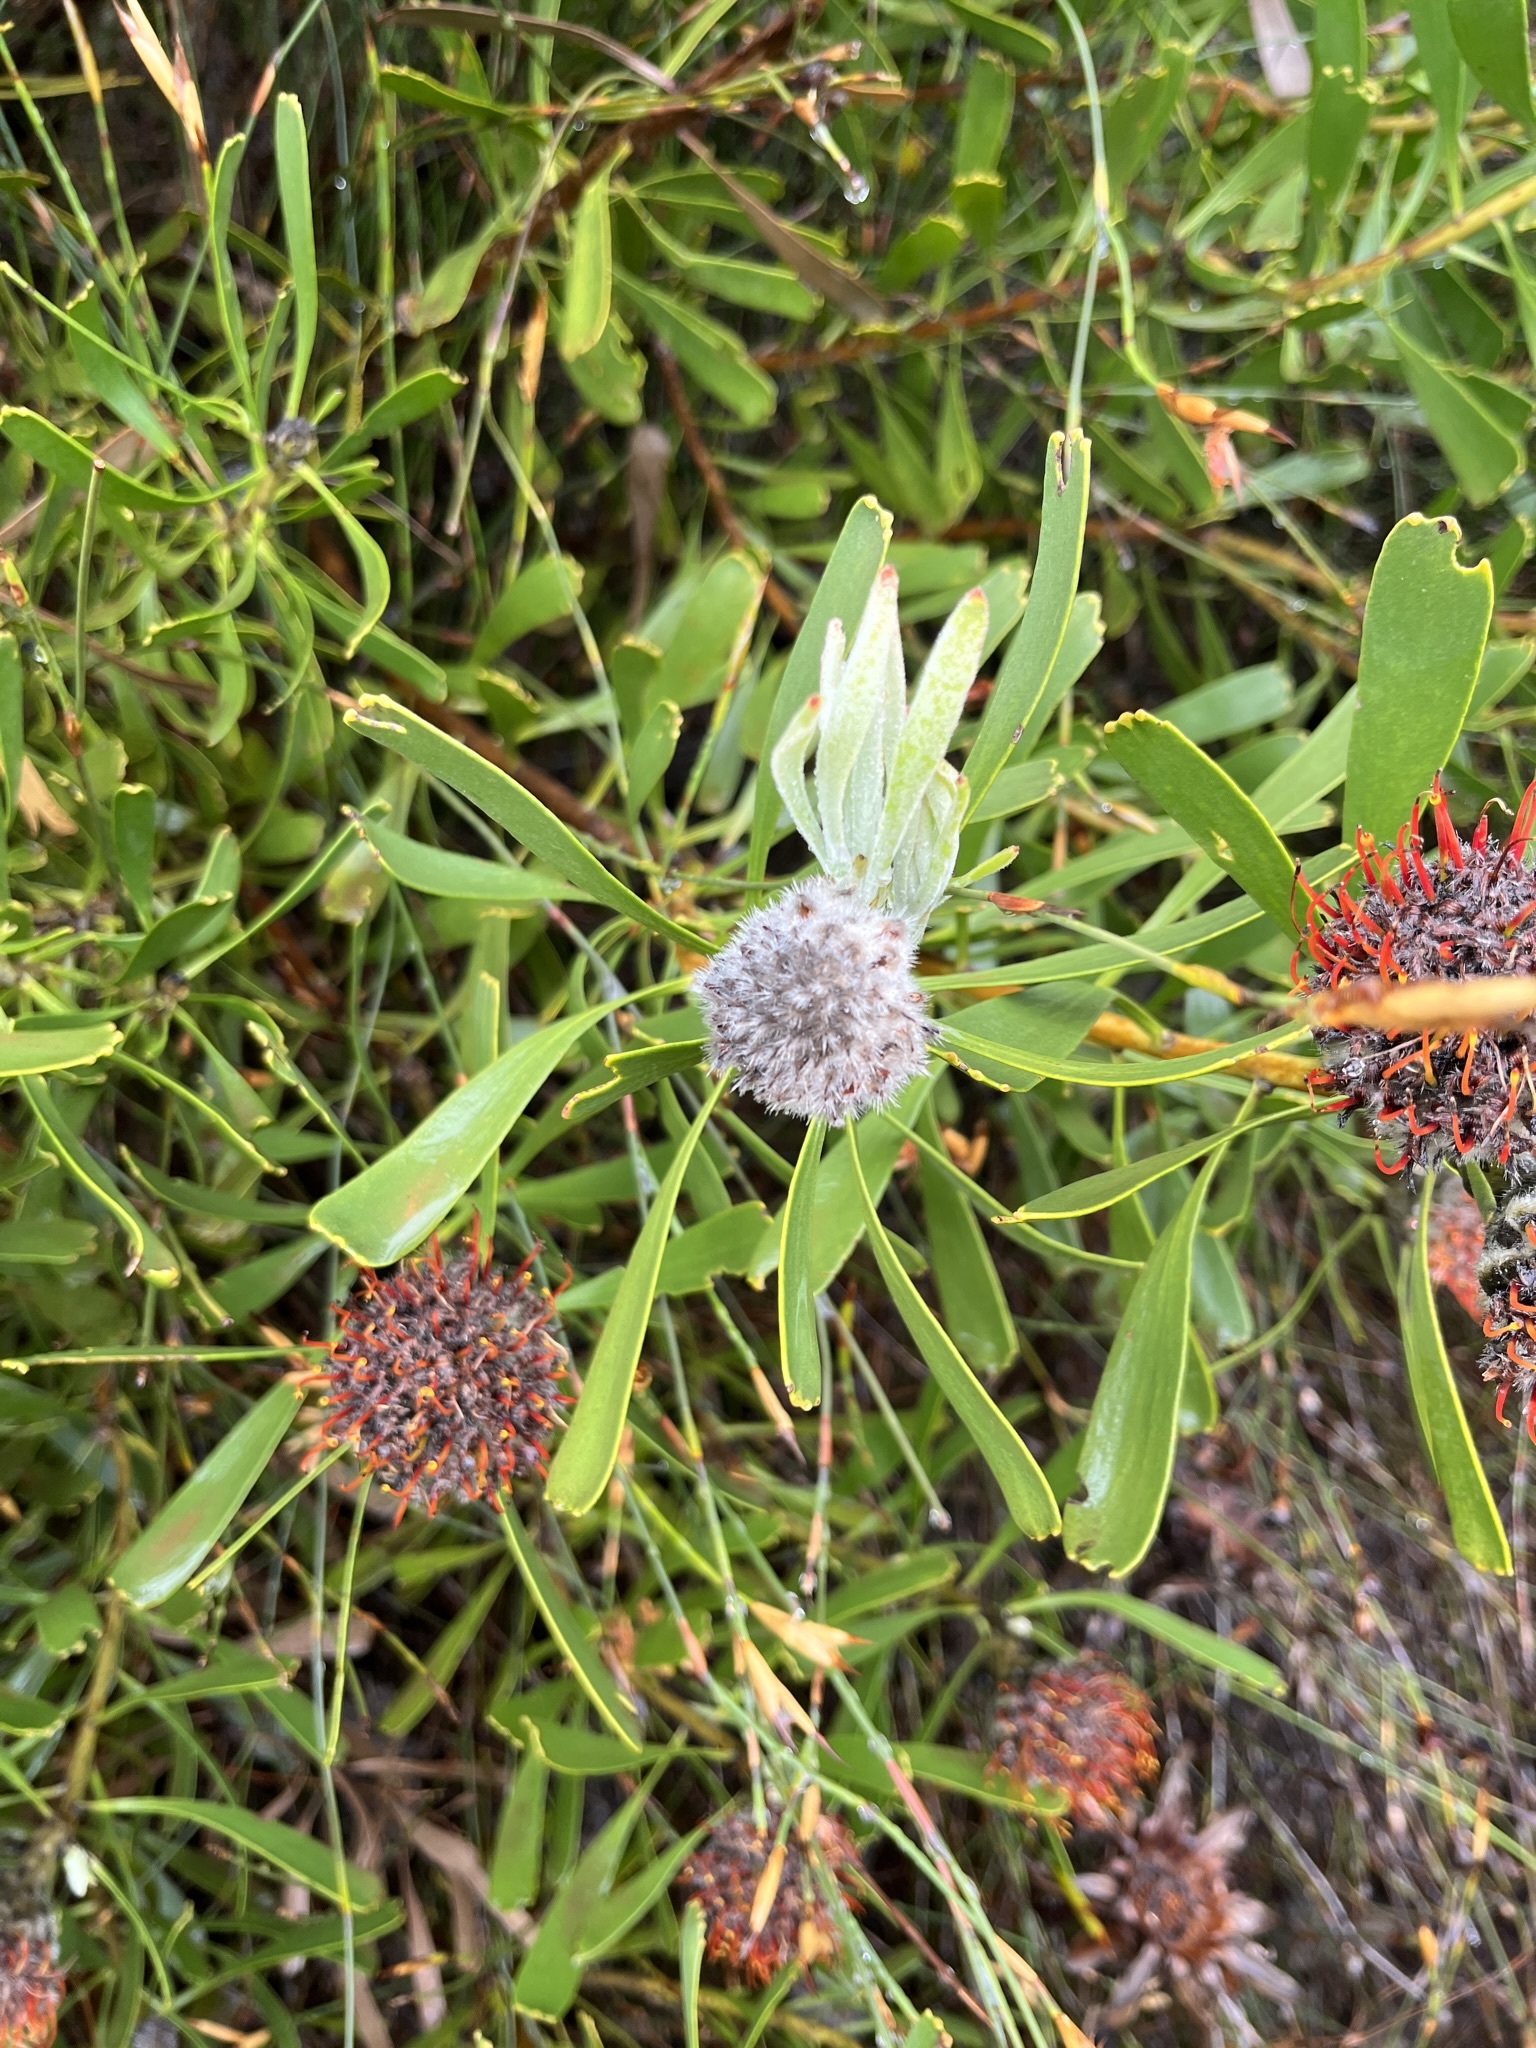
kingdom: Plantae
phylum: Tracheophyta
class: Magnoliopsida
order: Proteales
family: Proteaceae
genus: Leucospermum
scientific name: Leucospermum truncatum
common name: Limestone pincushion
